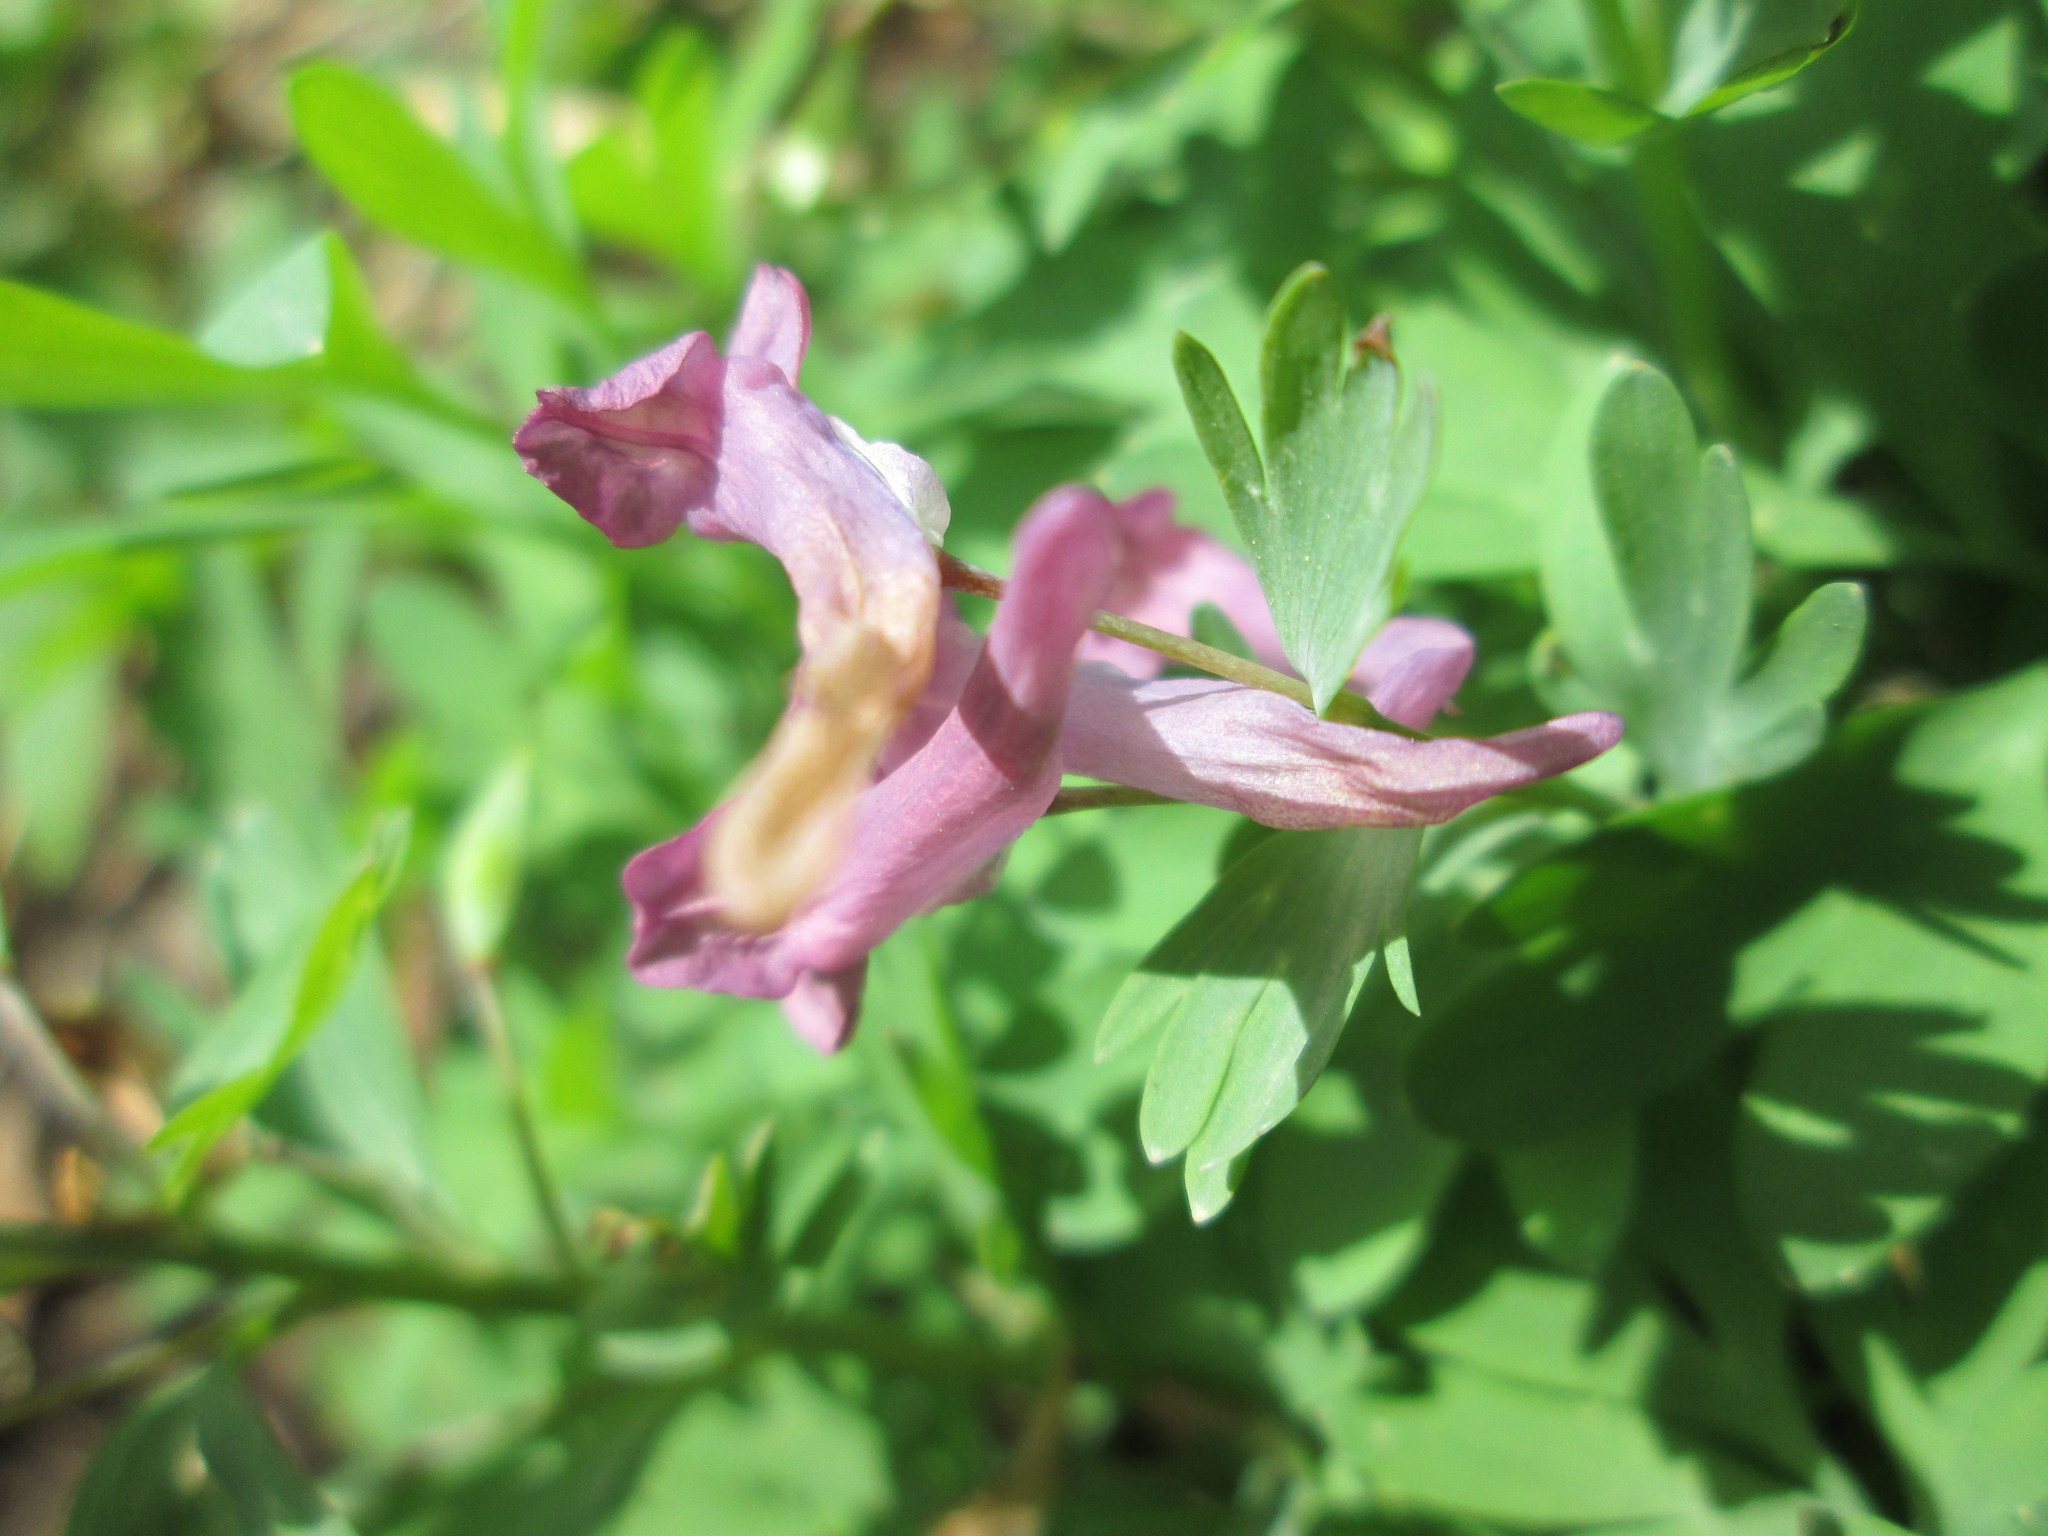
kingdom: Plantae
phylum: Tracheophyta
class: Magnoliopsida
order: Ranunculales
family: Papaveraceae
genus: Corydalis
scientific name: Corydalis solida
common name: Bird-in-a-bush
